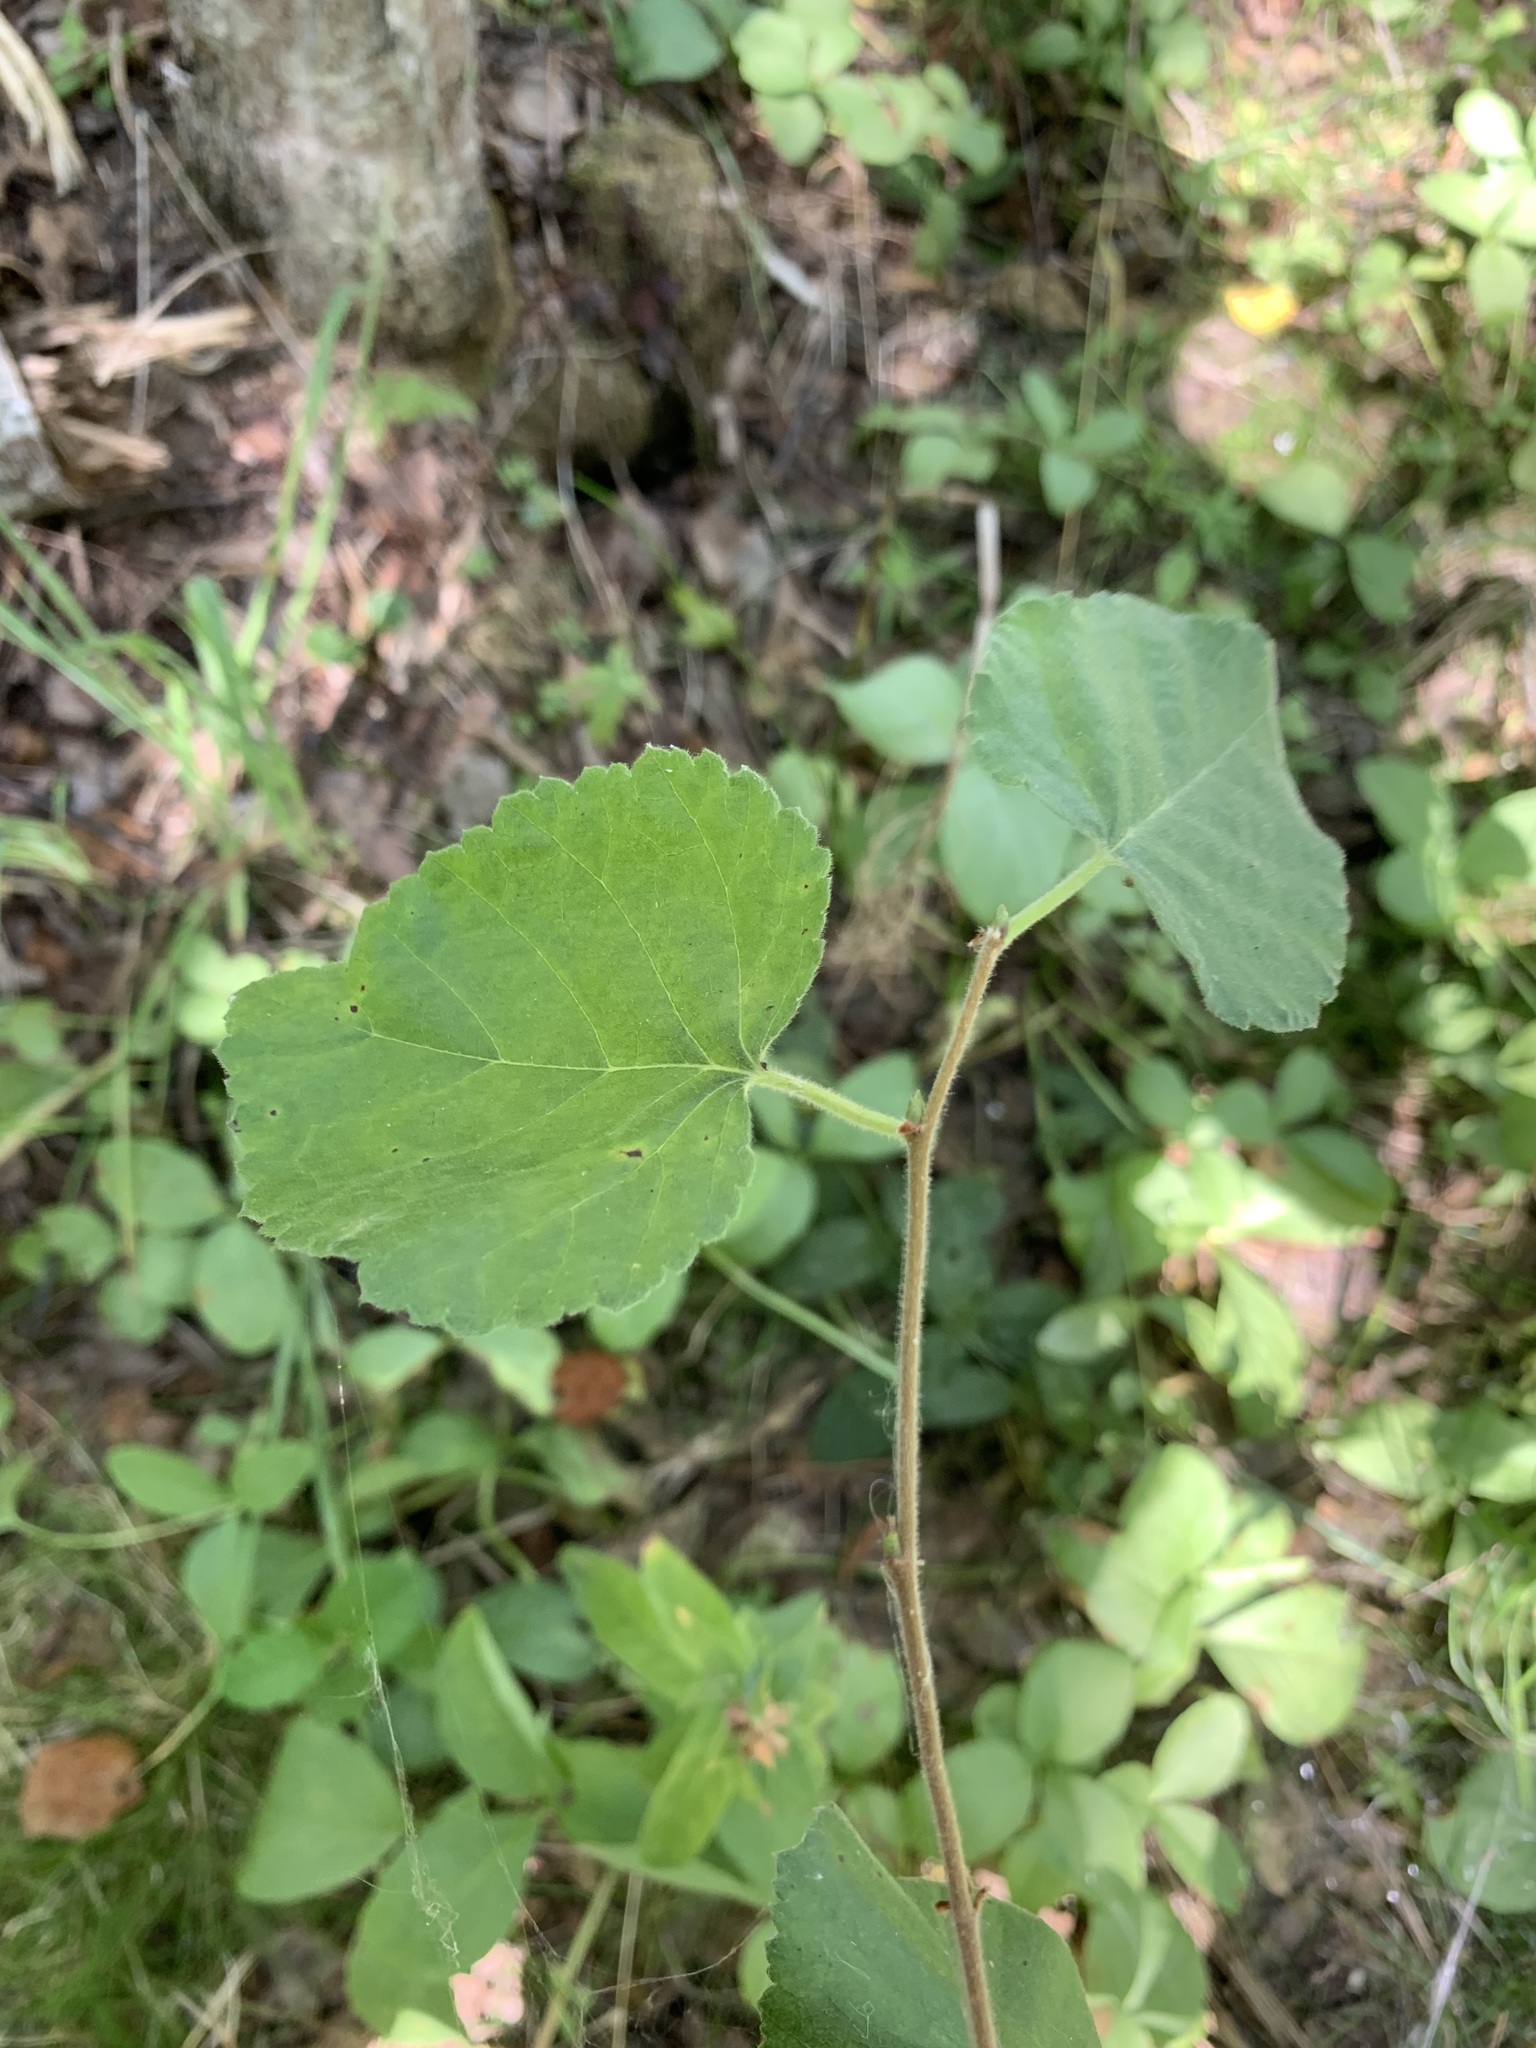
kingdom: Plantae
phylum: Tracheophyta
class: Magnoliopsida
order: Fagales
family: Betulaceae
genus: Betula
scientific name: Betula pubescens
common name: Downy birch
